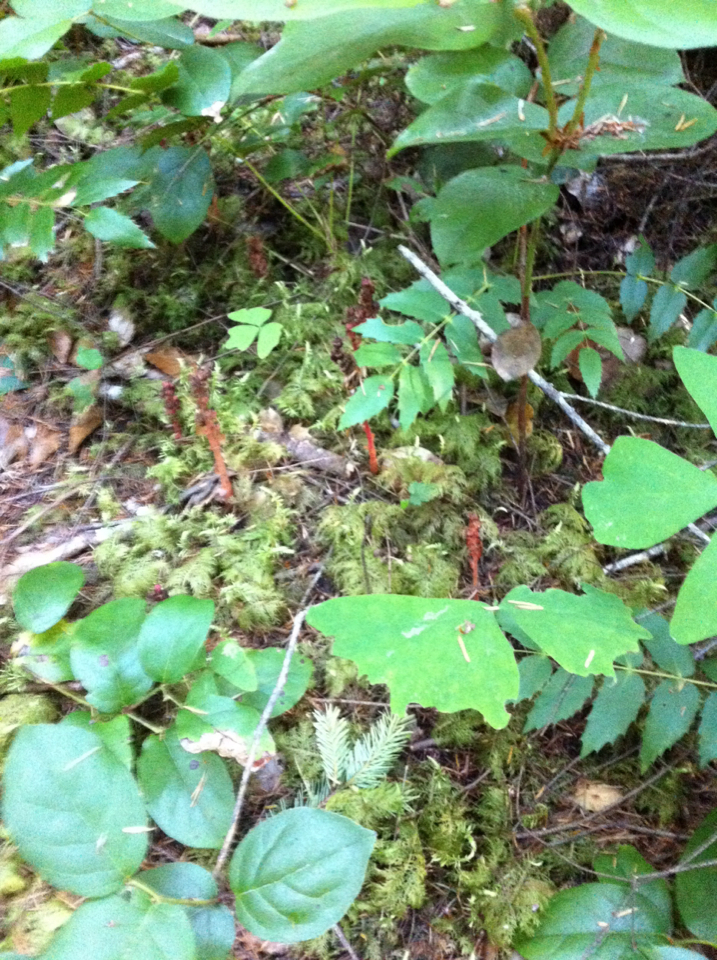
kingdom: Plantae
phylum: Tracheophyta
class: Magnoliopsida
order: Ericales
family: Ericaceae
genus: Hypopitys
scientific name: Hypopitys monotropa
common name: Yellow bird's-nest
